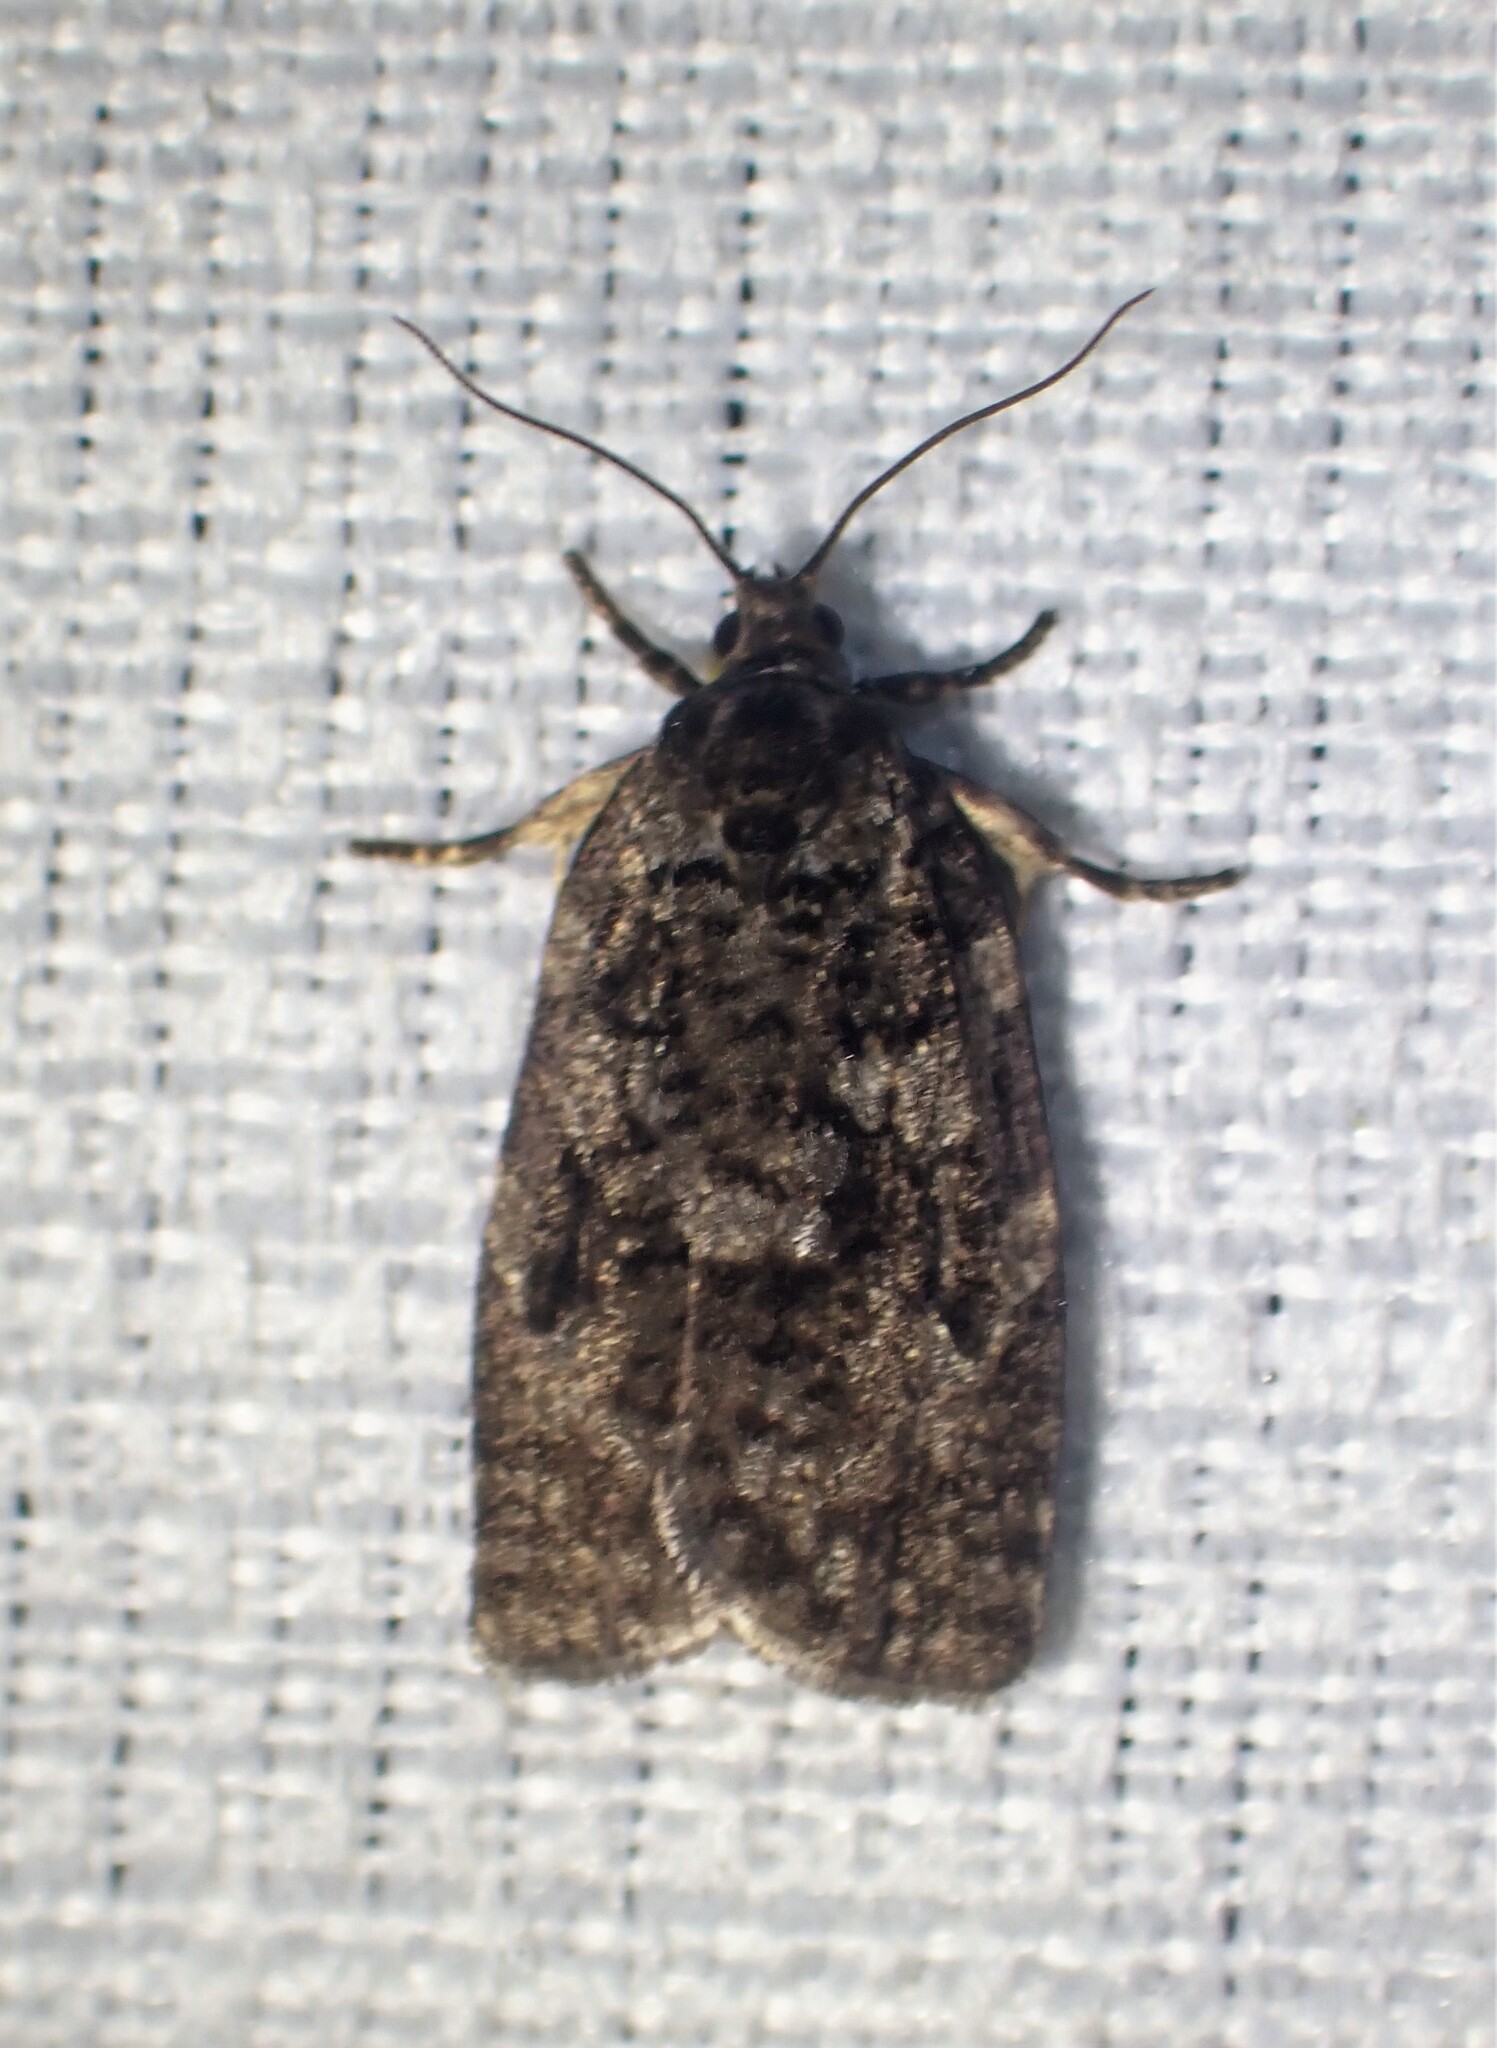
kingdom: Animalia
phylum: Arthropoda
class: Insecta
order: Lepidoptera
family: Tortricidae
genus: Choristoneura
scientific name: Choristoneura fumiferana
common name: Spruce budworm
